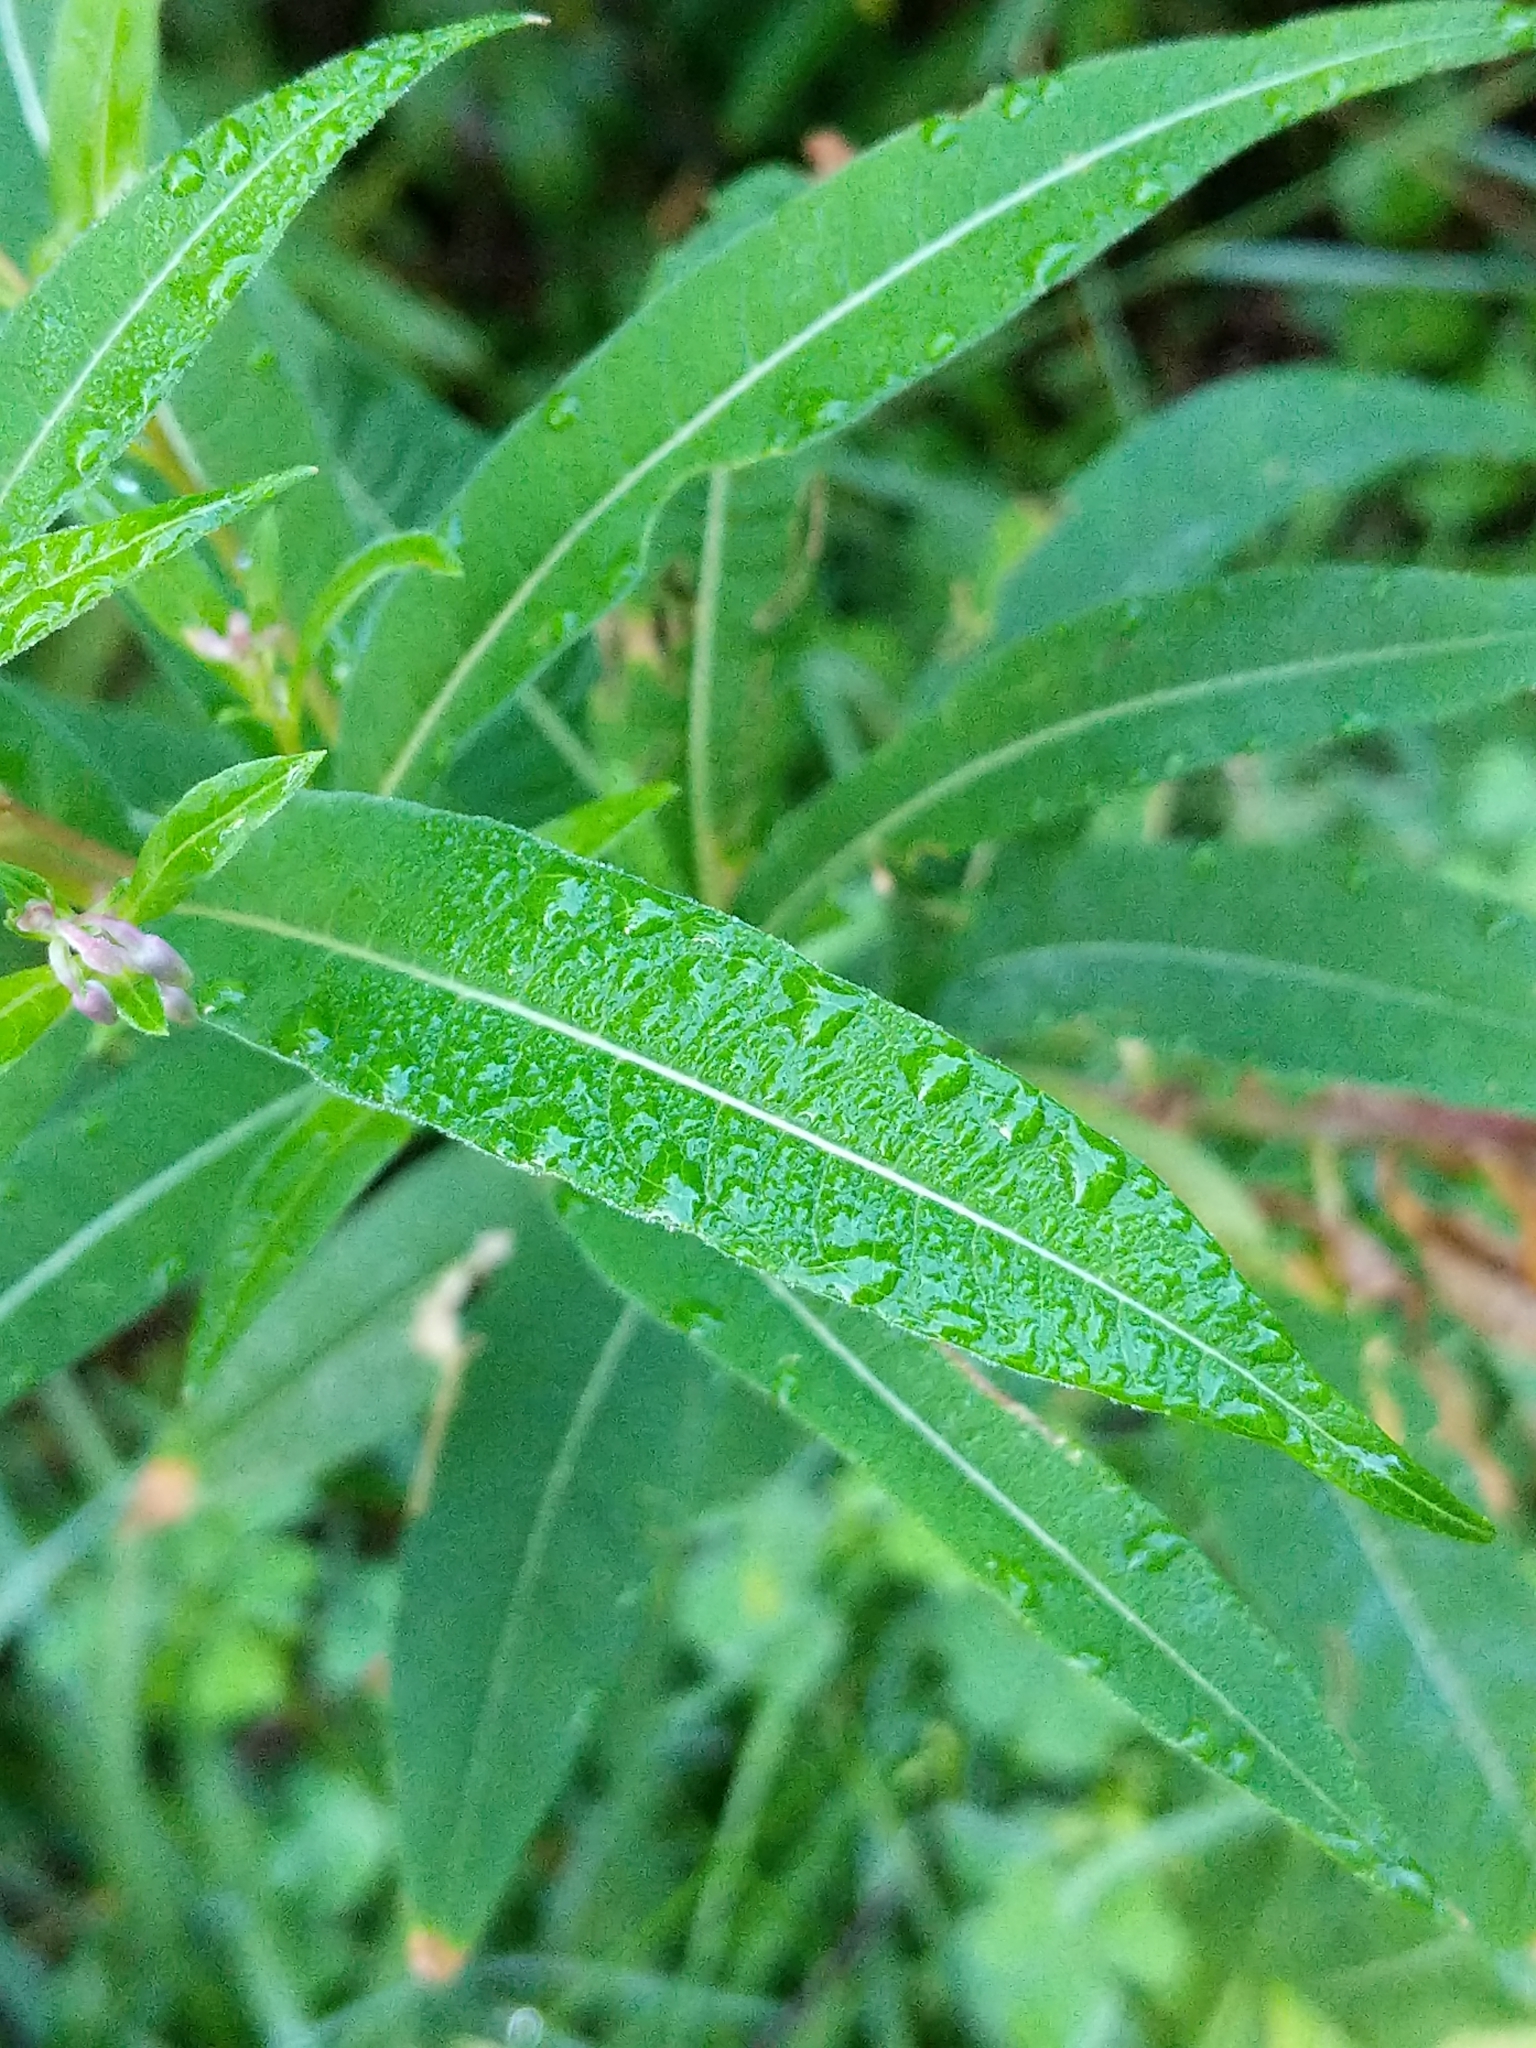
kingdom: Plantae
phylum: Tracheophyta
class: Magnoliopsida
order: Myrtales
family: Onagraceae
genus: Chamaenerion
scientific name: Chamaenerion angustifolium
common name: Fireweed
